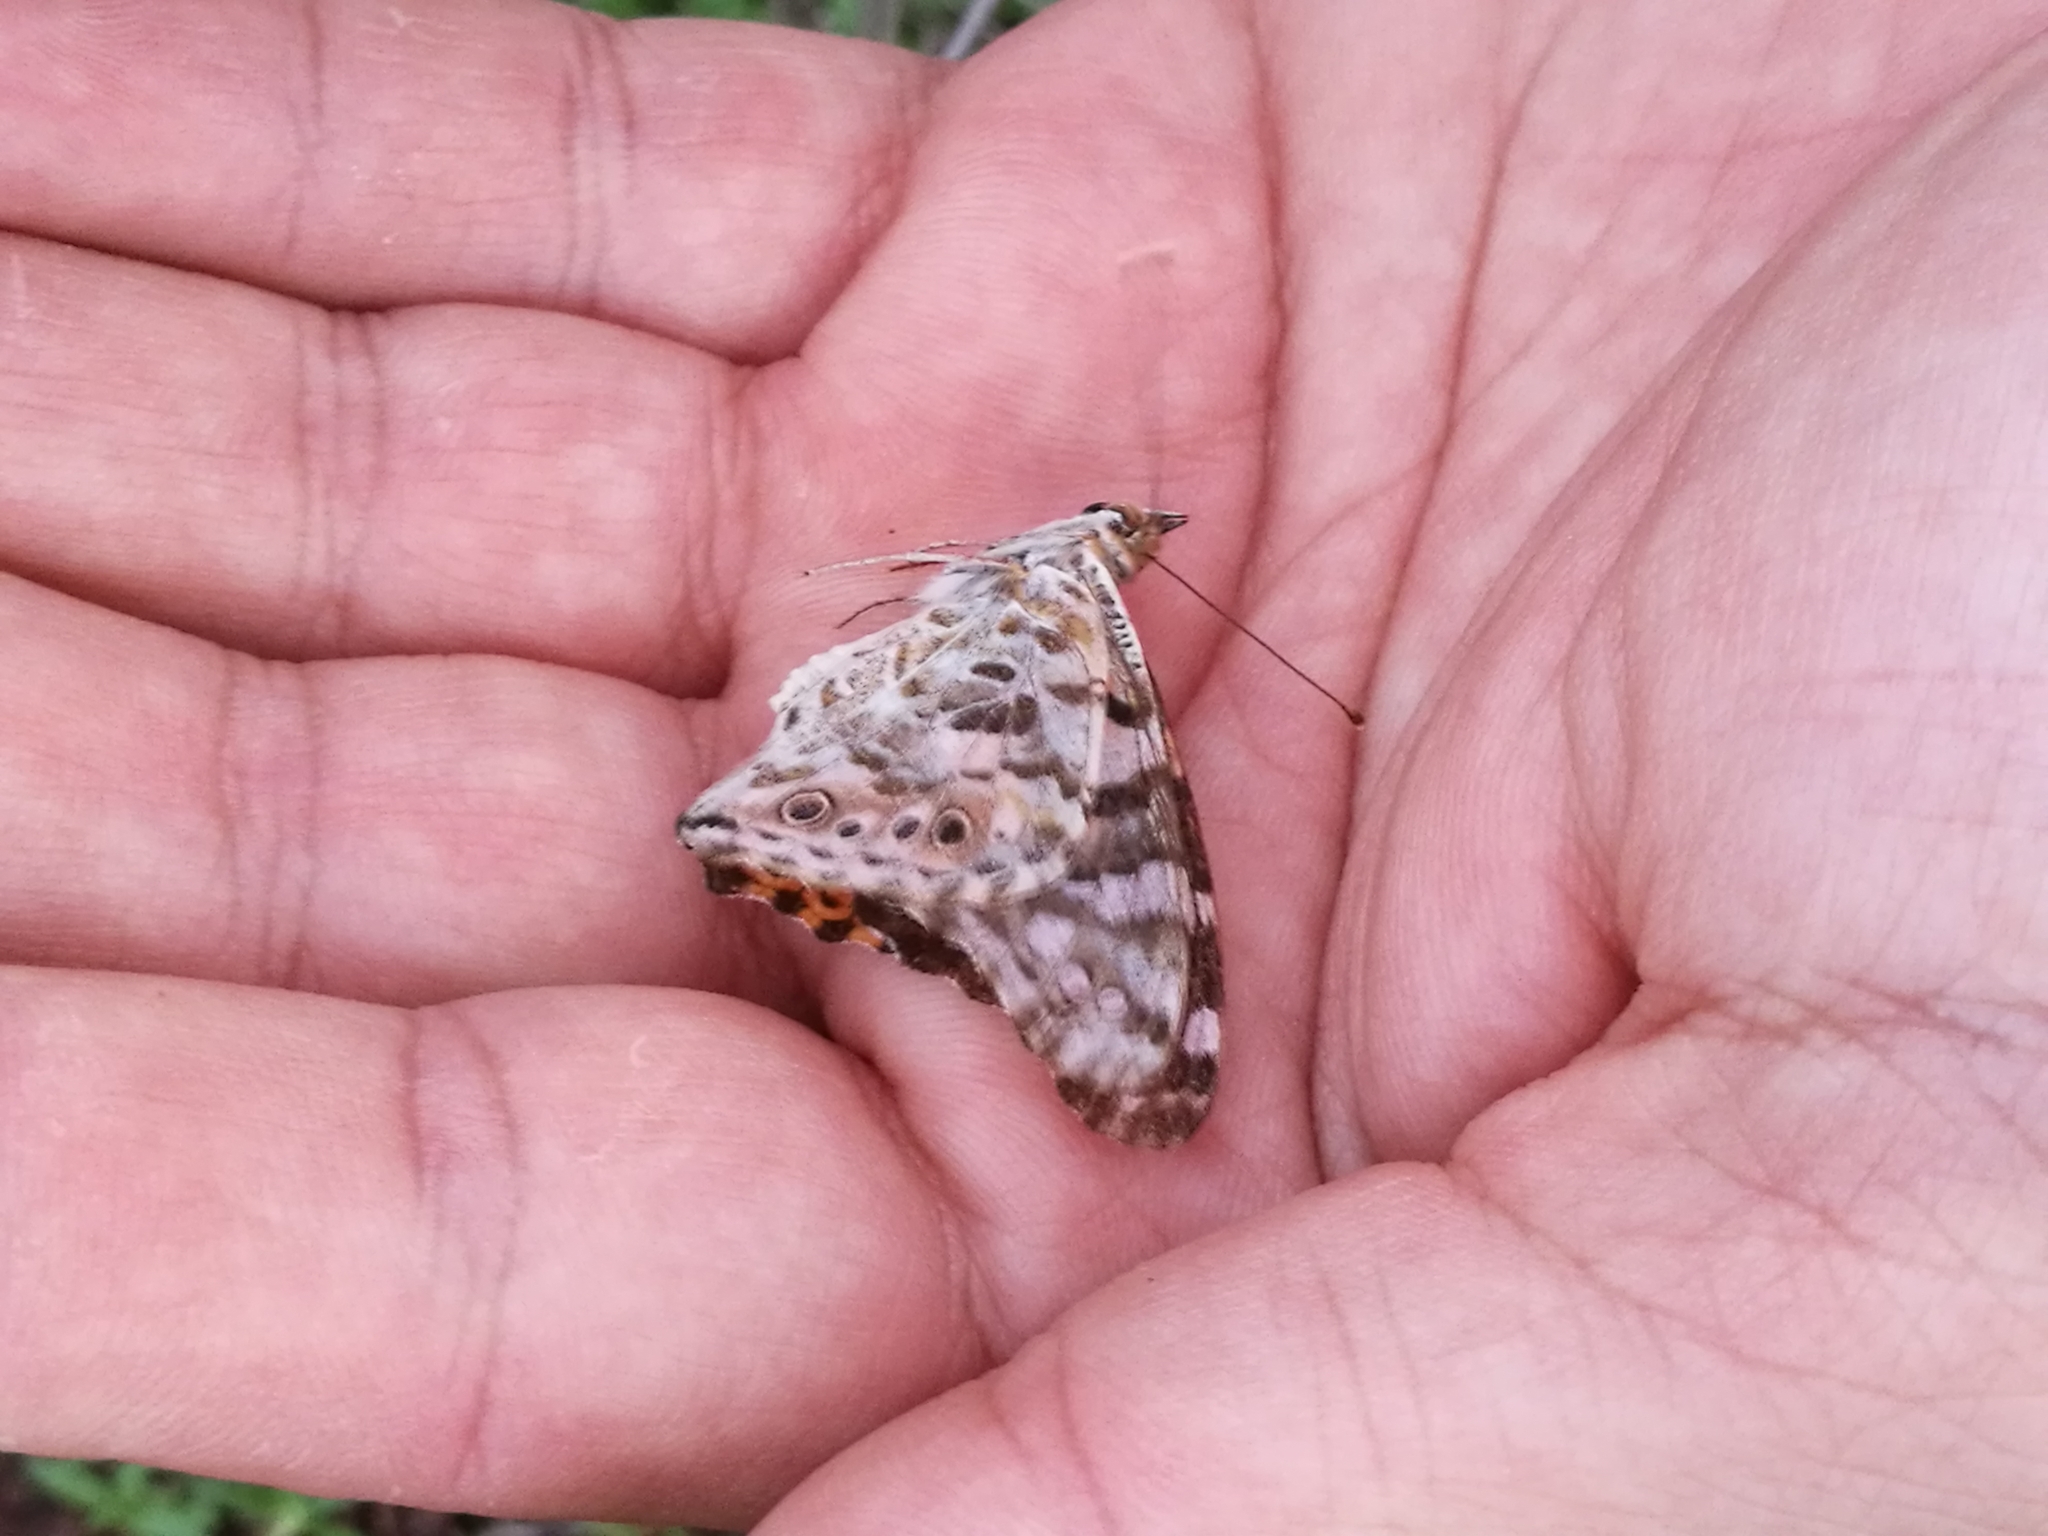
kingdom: Animalia
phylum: Arthropoda
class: Insecta
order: Lepidoptera
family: Nymphalidae
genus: Vanessa
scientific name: Vanessa cardui
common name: Painted lady
